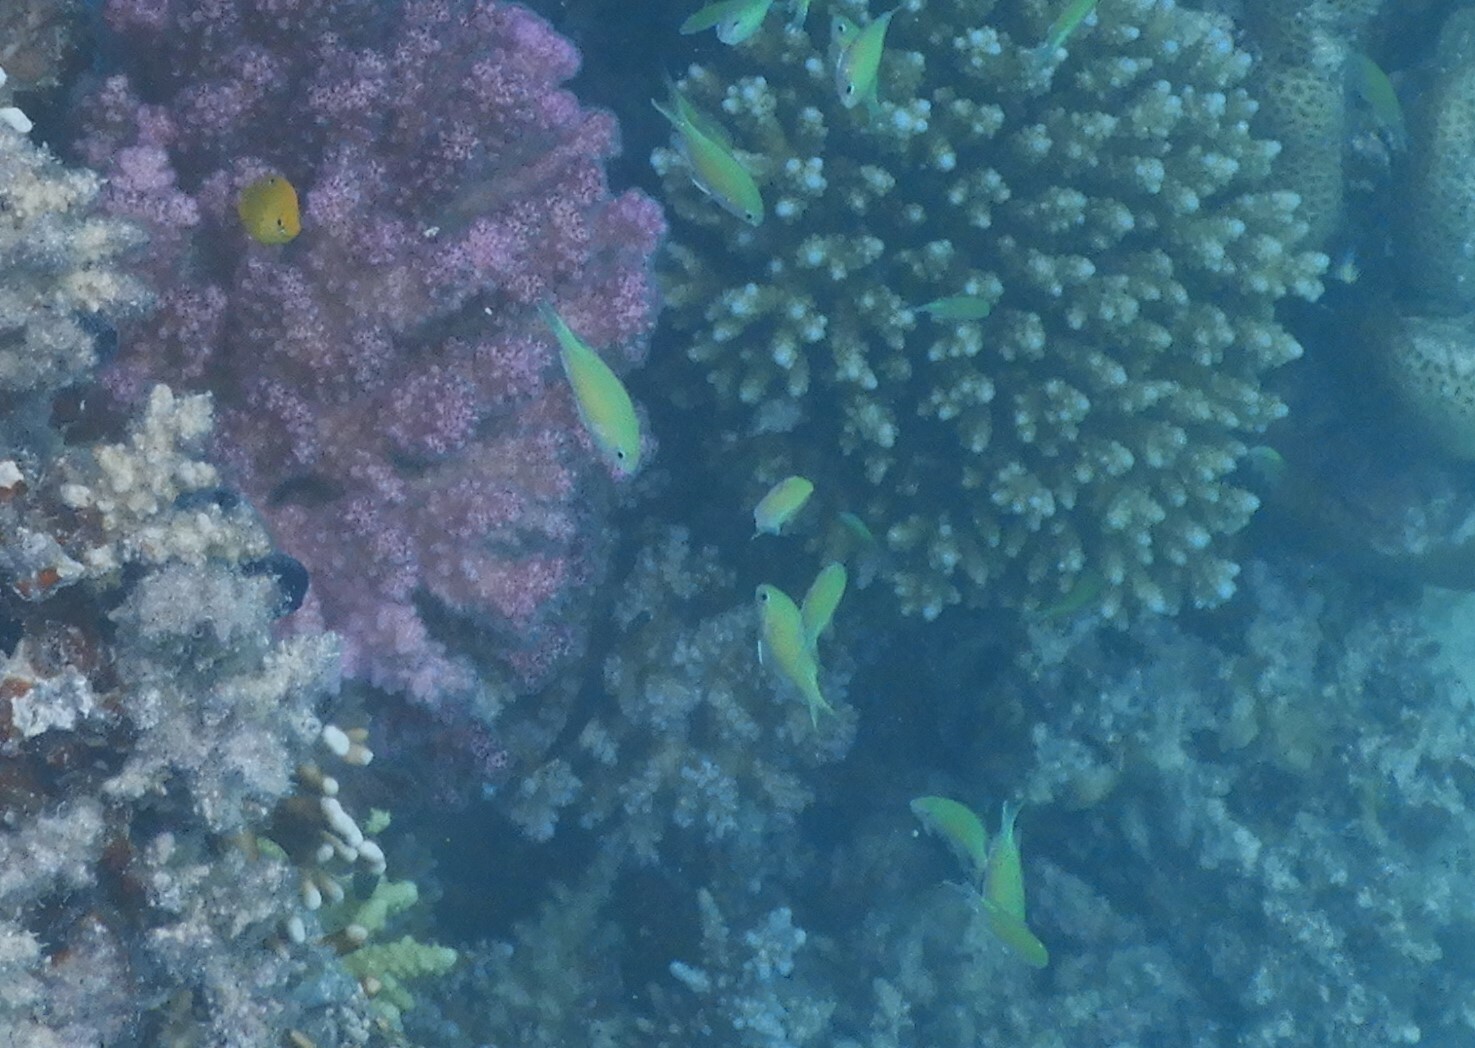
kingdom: Animalia
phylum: Chordata
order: Perciformes
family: Pomacentridae
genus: Chromis
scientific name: Chromis viridis
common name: Blue-green chromis
